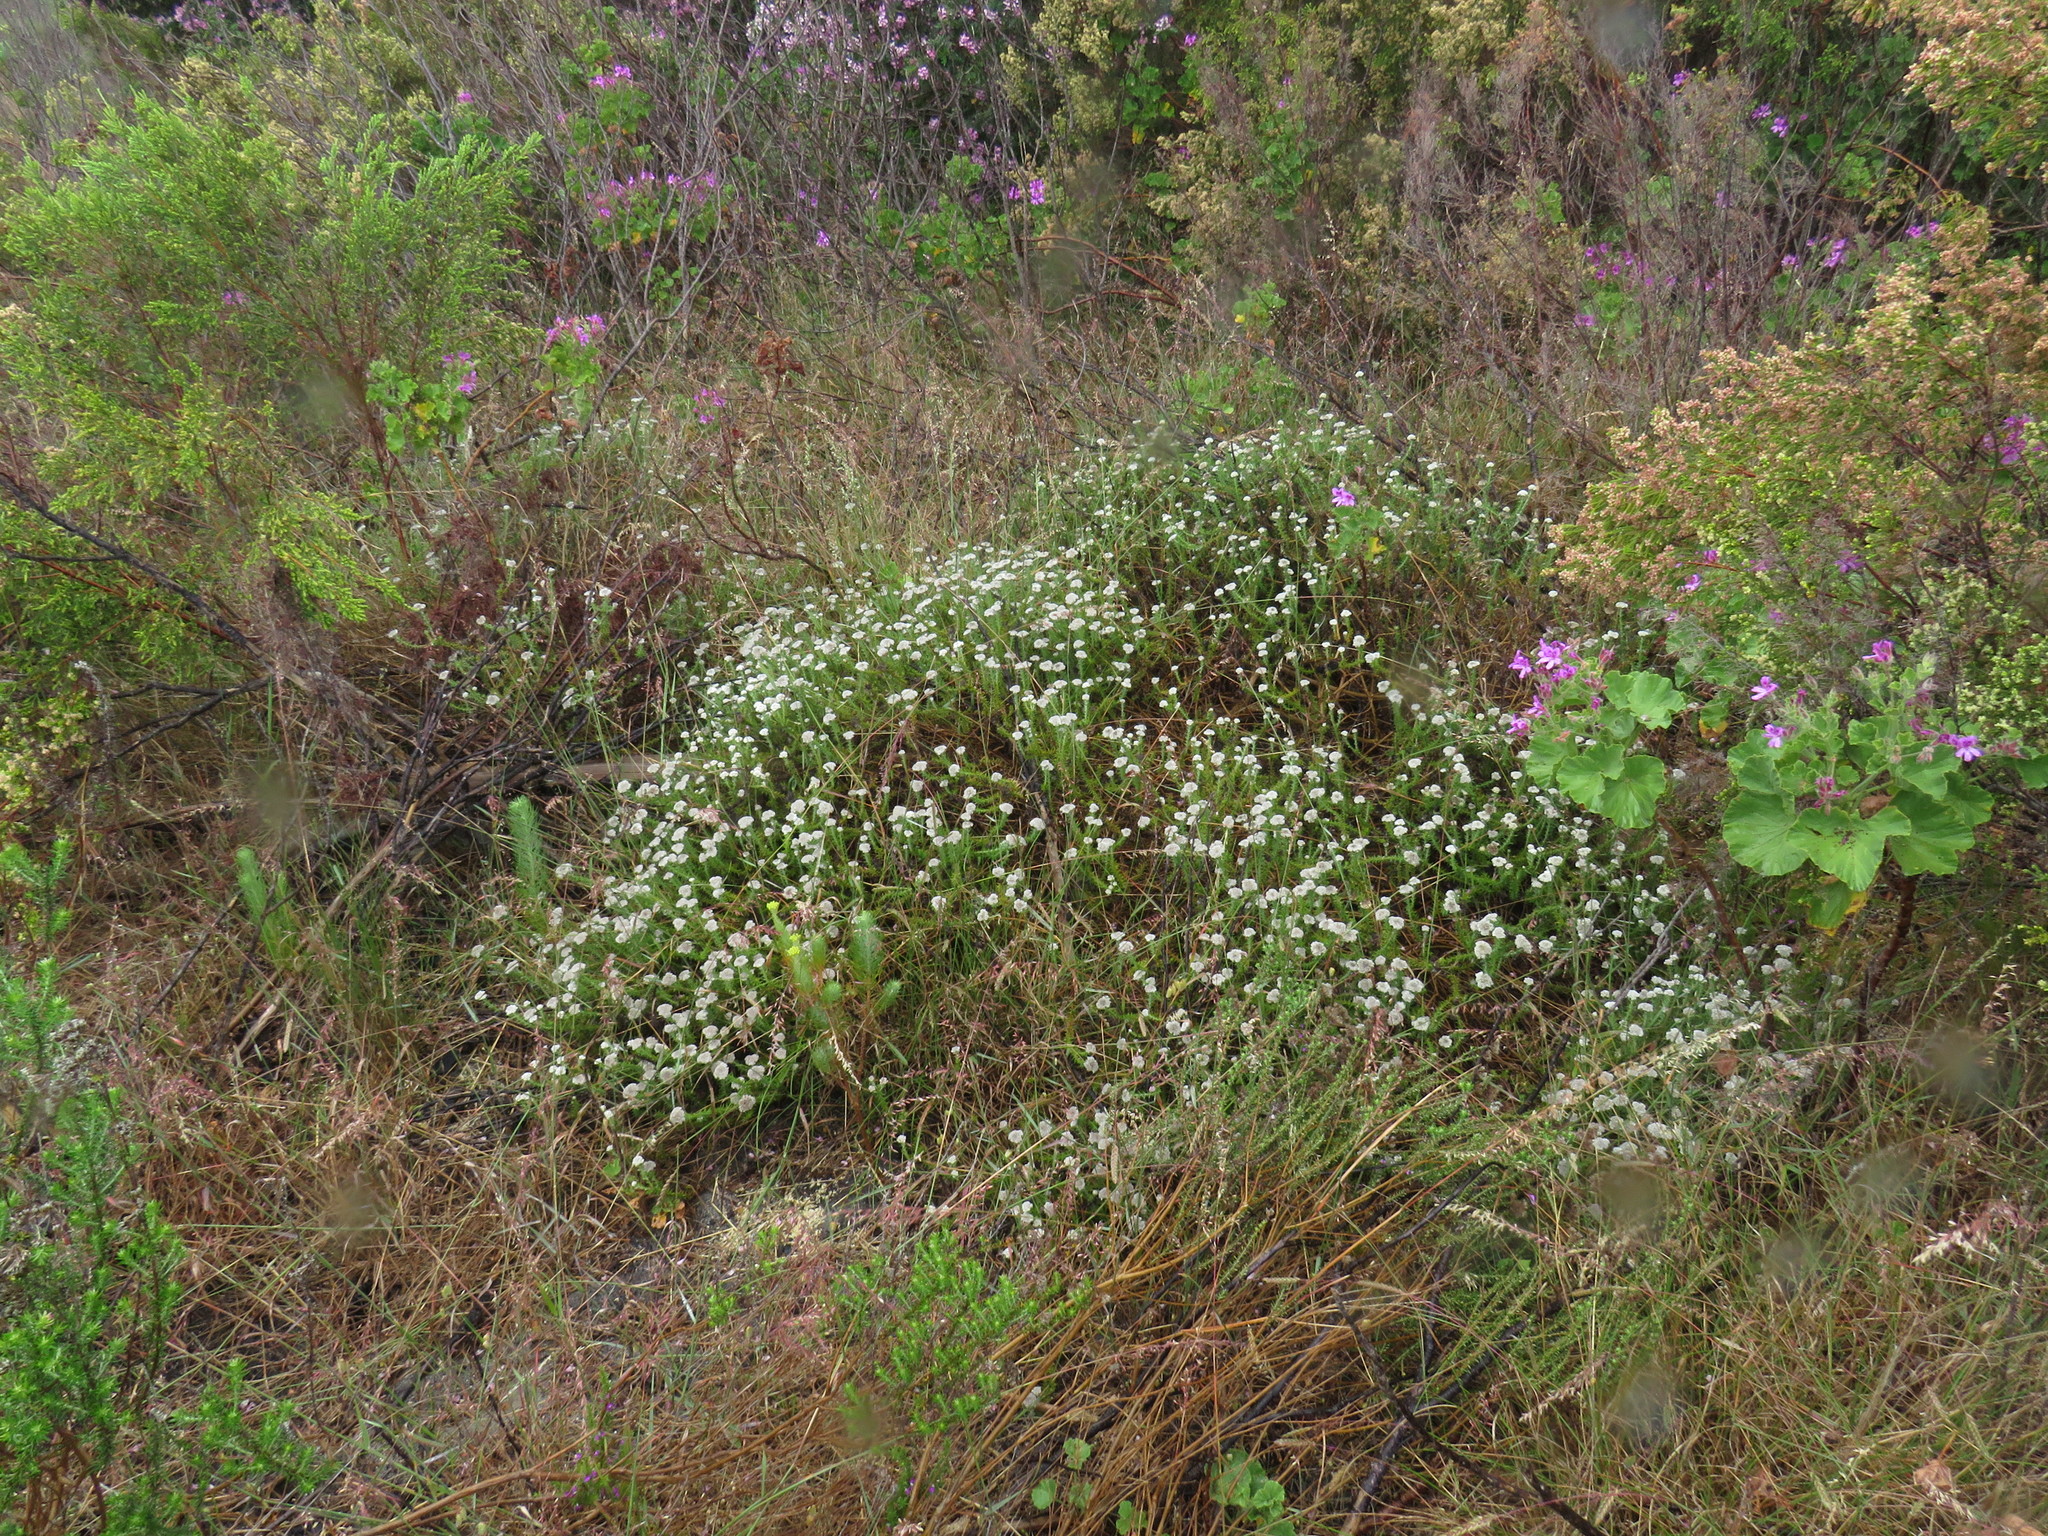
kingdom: Plantae
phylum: Tracheophyta
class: Magnoliopsida
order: Asterales
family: Asteraceae
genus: Metalasia
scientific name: Metalasia pulchella
